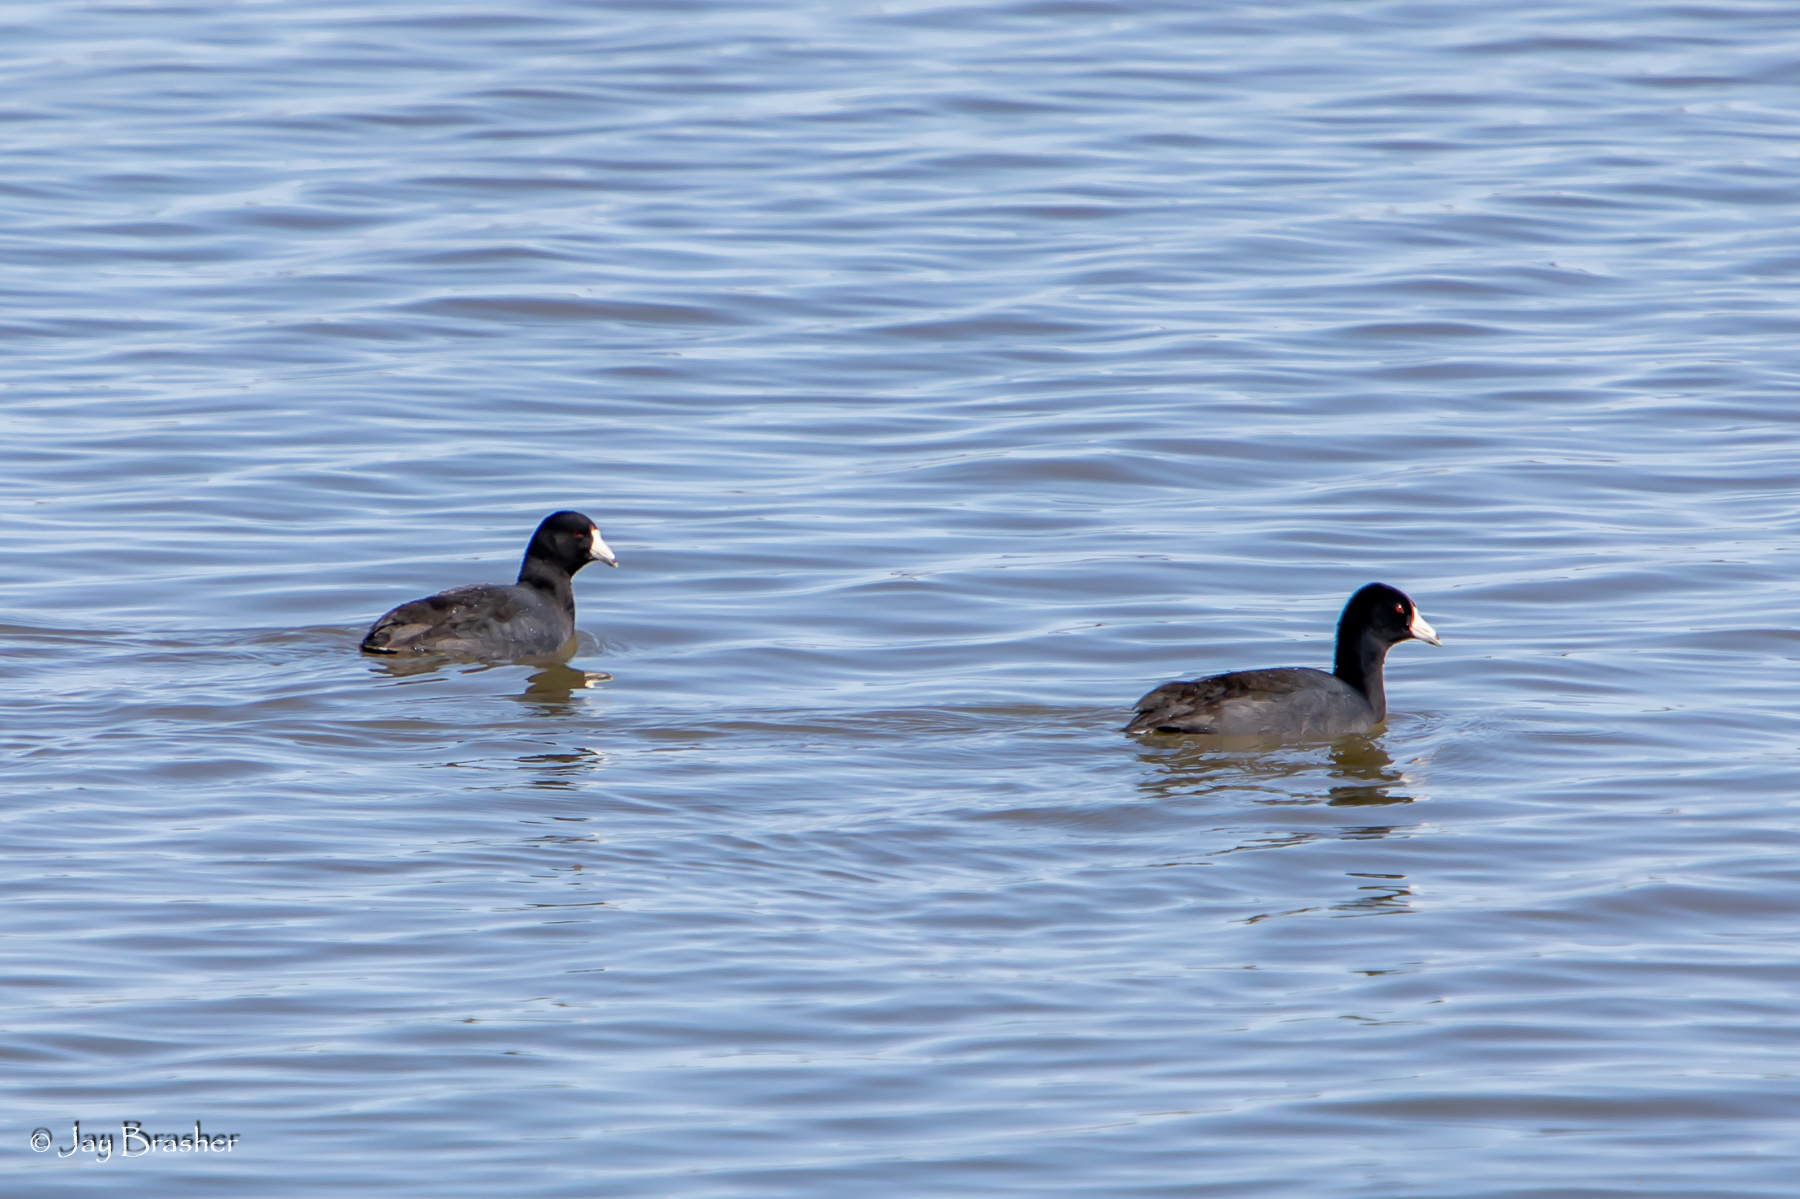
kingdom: Animalia
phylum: Chordata
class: Aves
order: Gruiformes
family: Rallidae
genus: Fulica
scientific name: Fulica americana
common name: American coot
